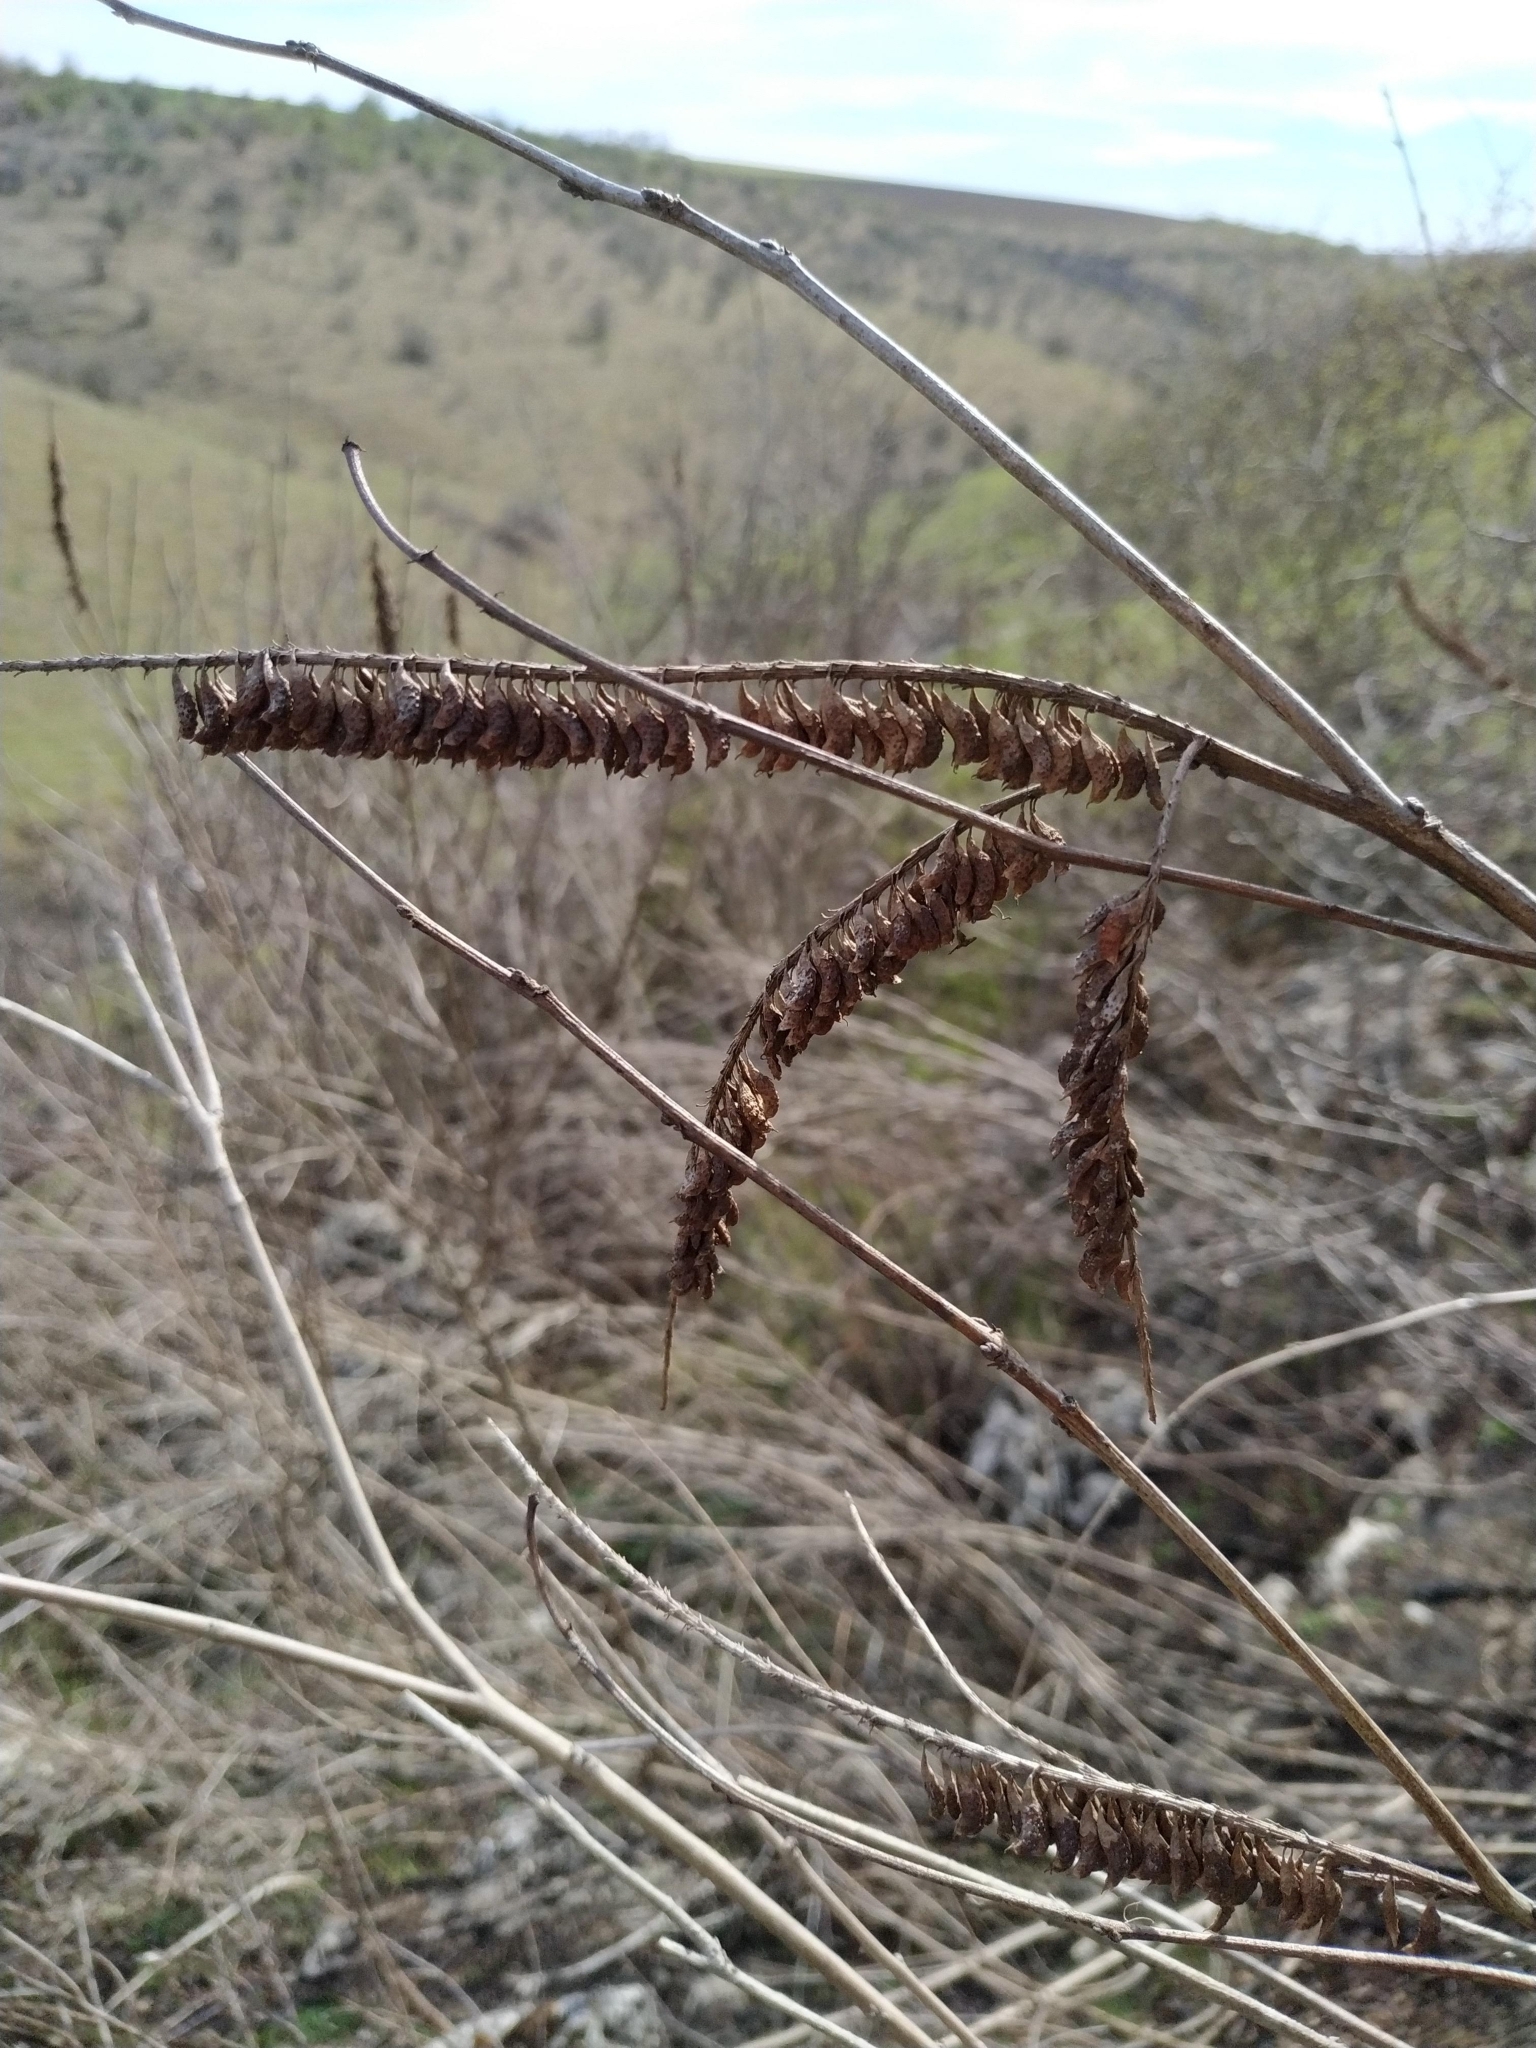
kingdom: Plantae
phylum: Tracheophyta
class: Magnoliopsida
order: Fabales
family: Fabaceae
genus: Amorpha
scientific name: Amorpha fruticosa
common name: False indigo
